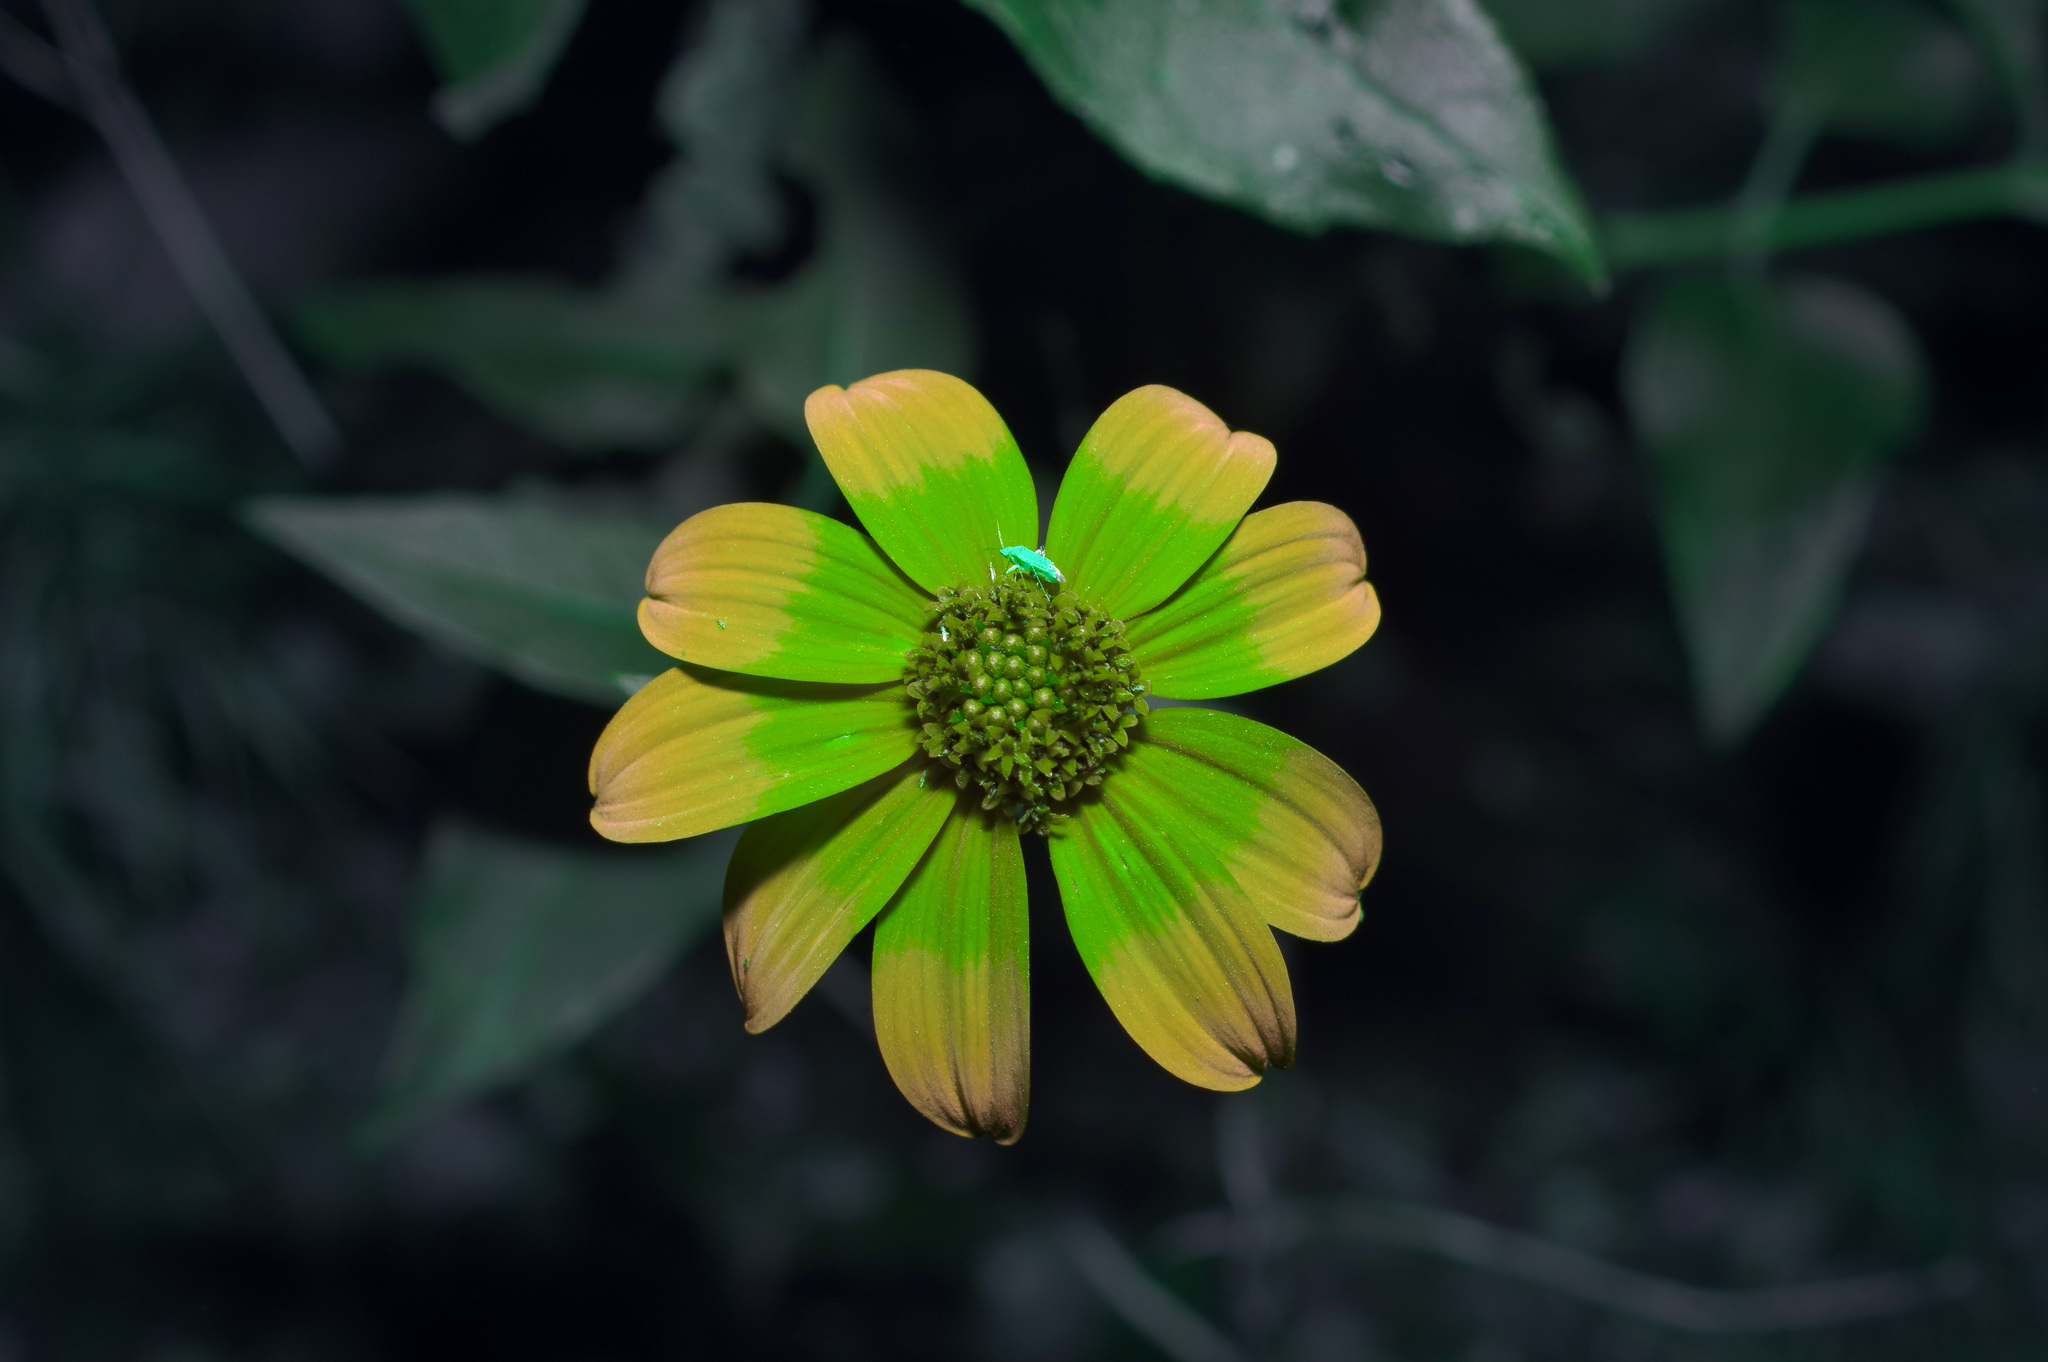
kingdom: Plantae
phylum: Tracheophyta
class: Magnoliopsida
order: Asterales
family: Asteraceae
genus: Viguiera
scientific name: Viguiera dentata
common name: Toothleaf
